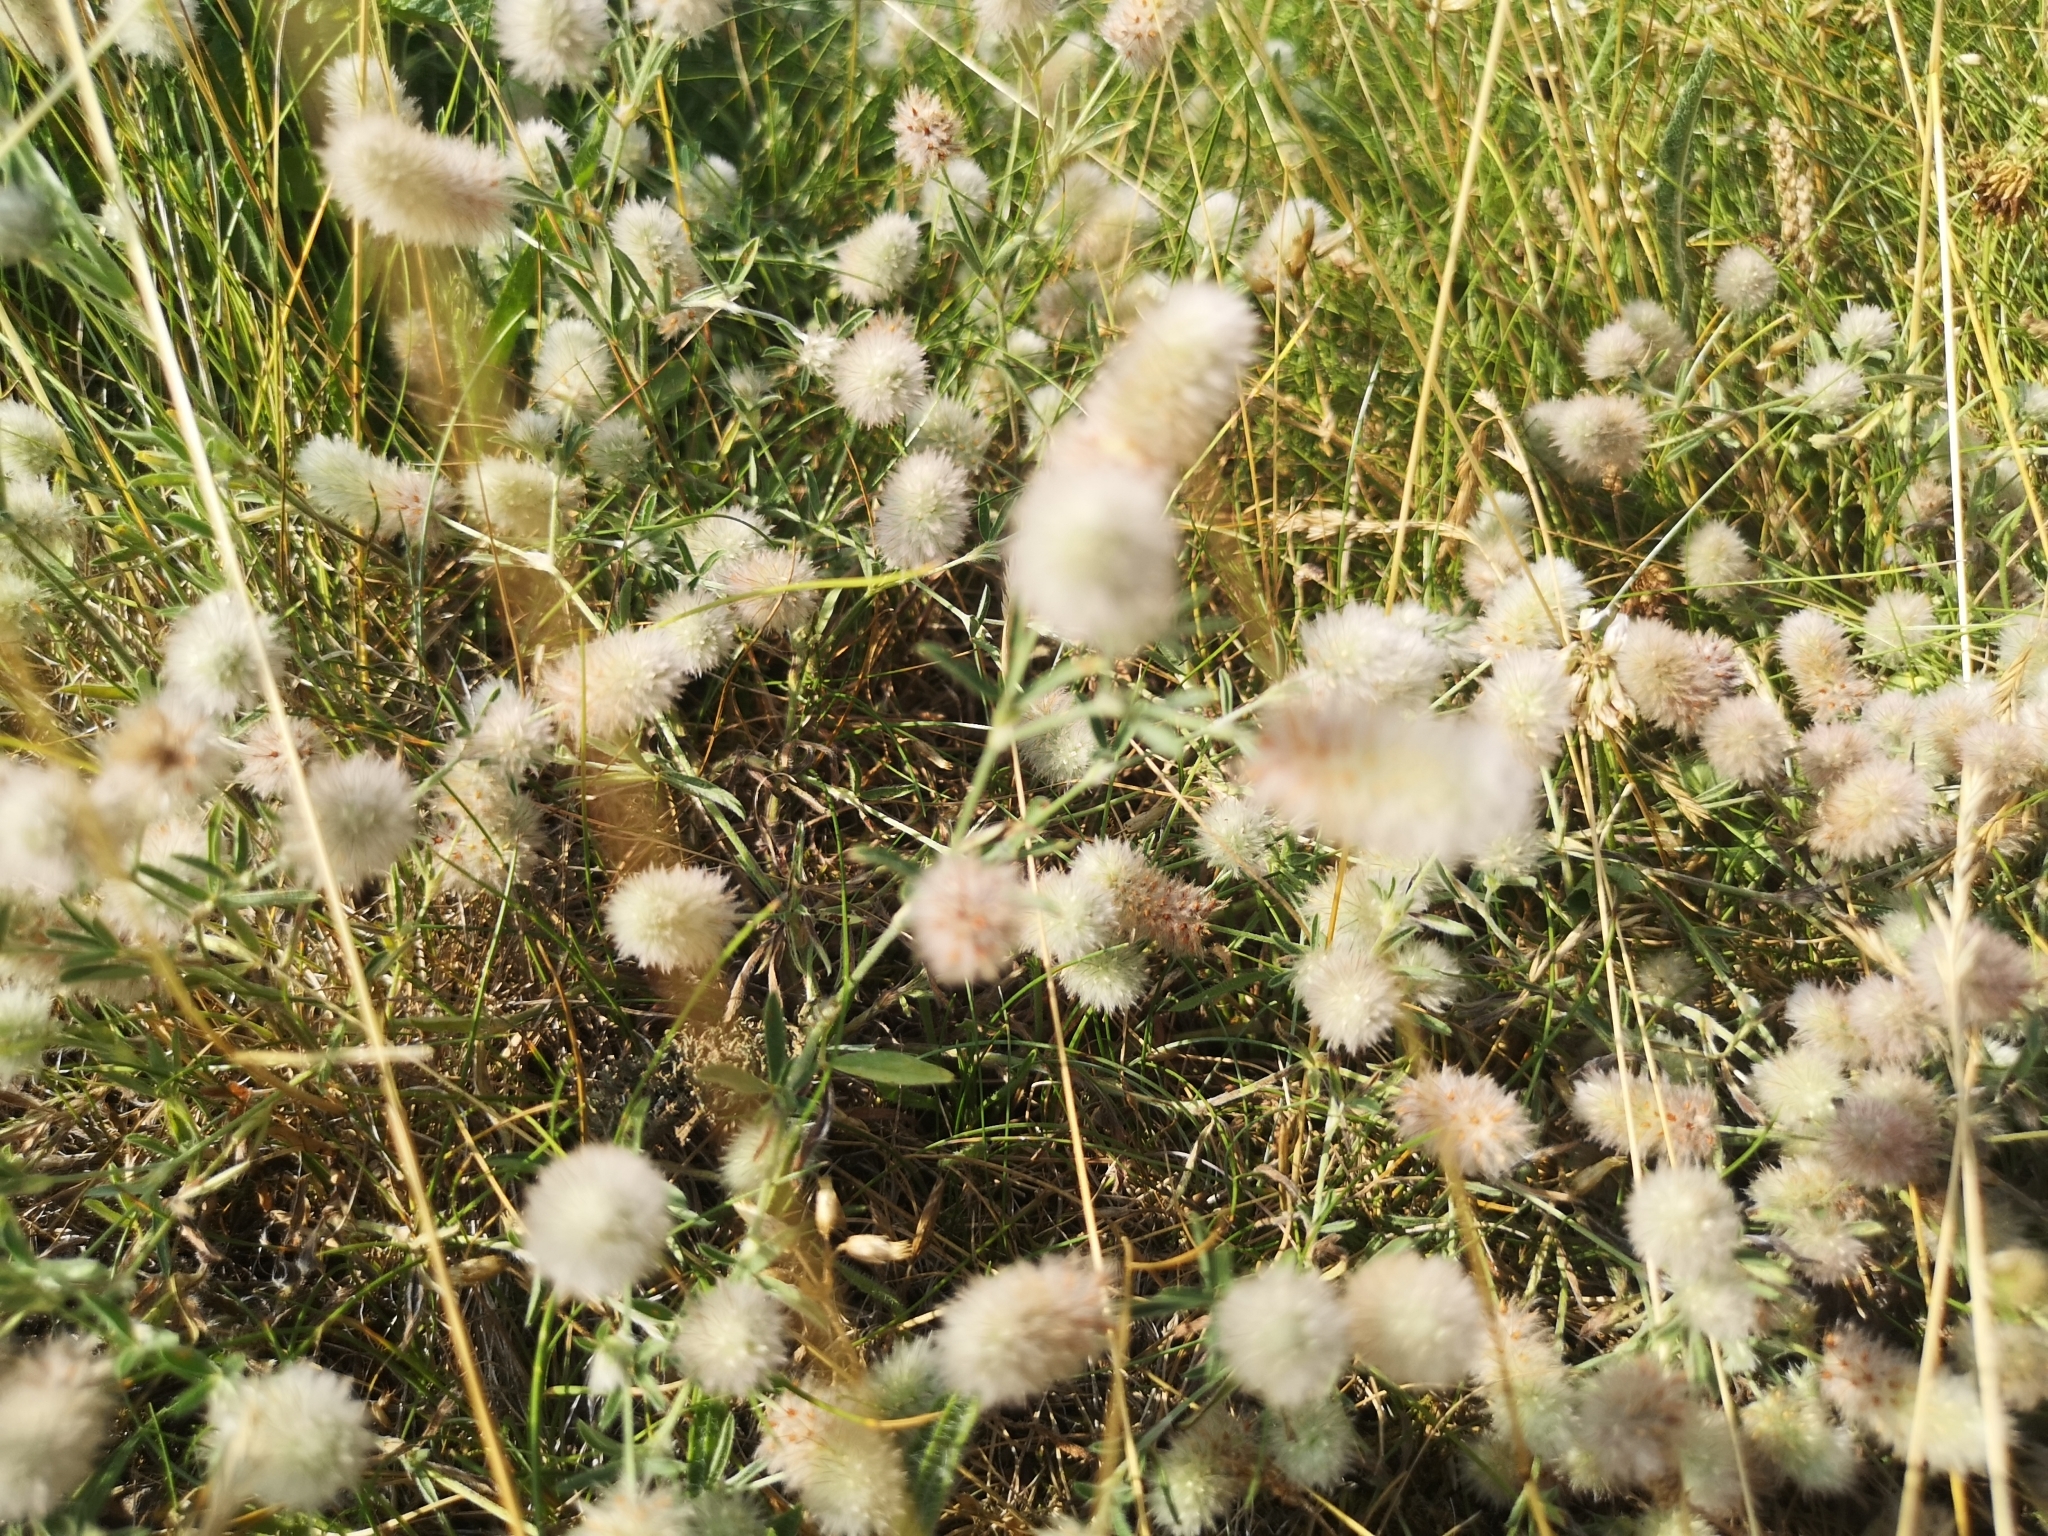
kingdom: Plantae
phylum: Tracheophyta
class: Magnoliopsida
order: Fabales
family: Fabaceae
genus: Trifolium
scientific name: Trifolium arvense
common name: Hare's-foot clover
